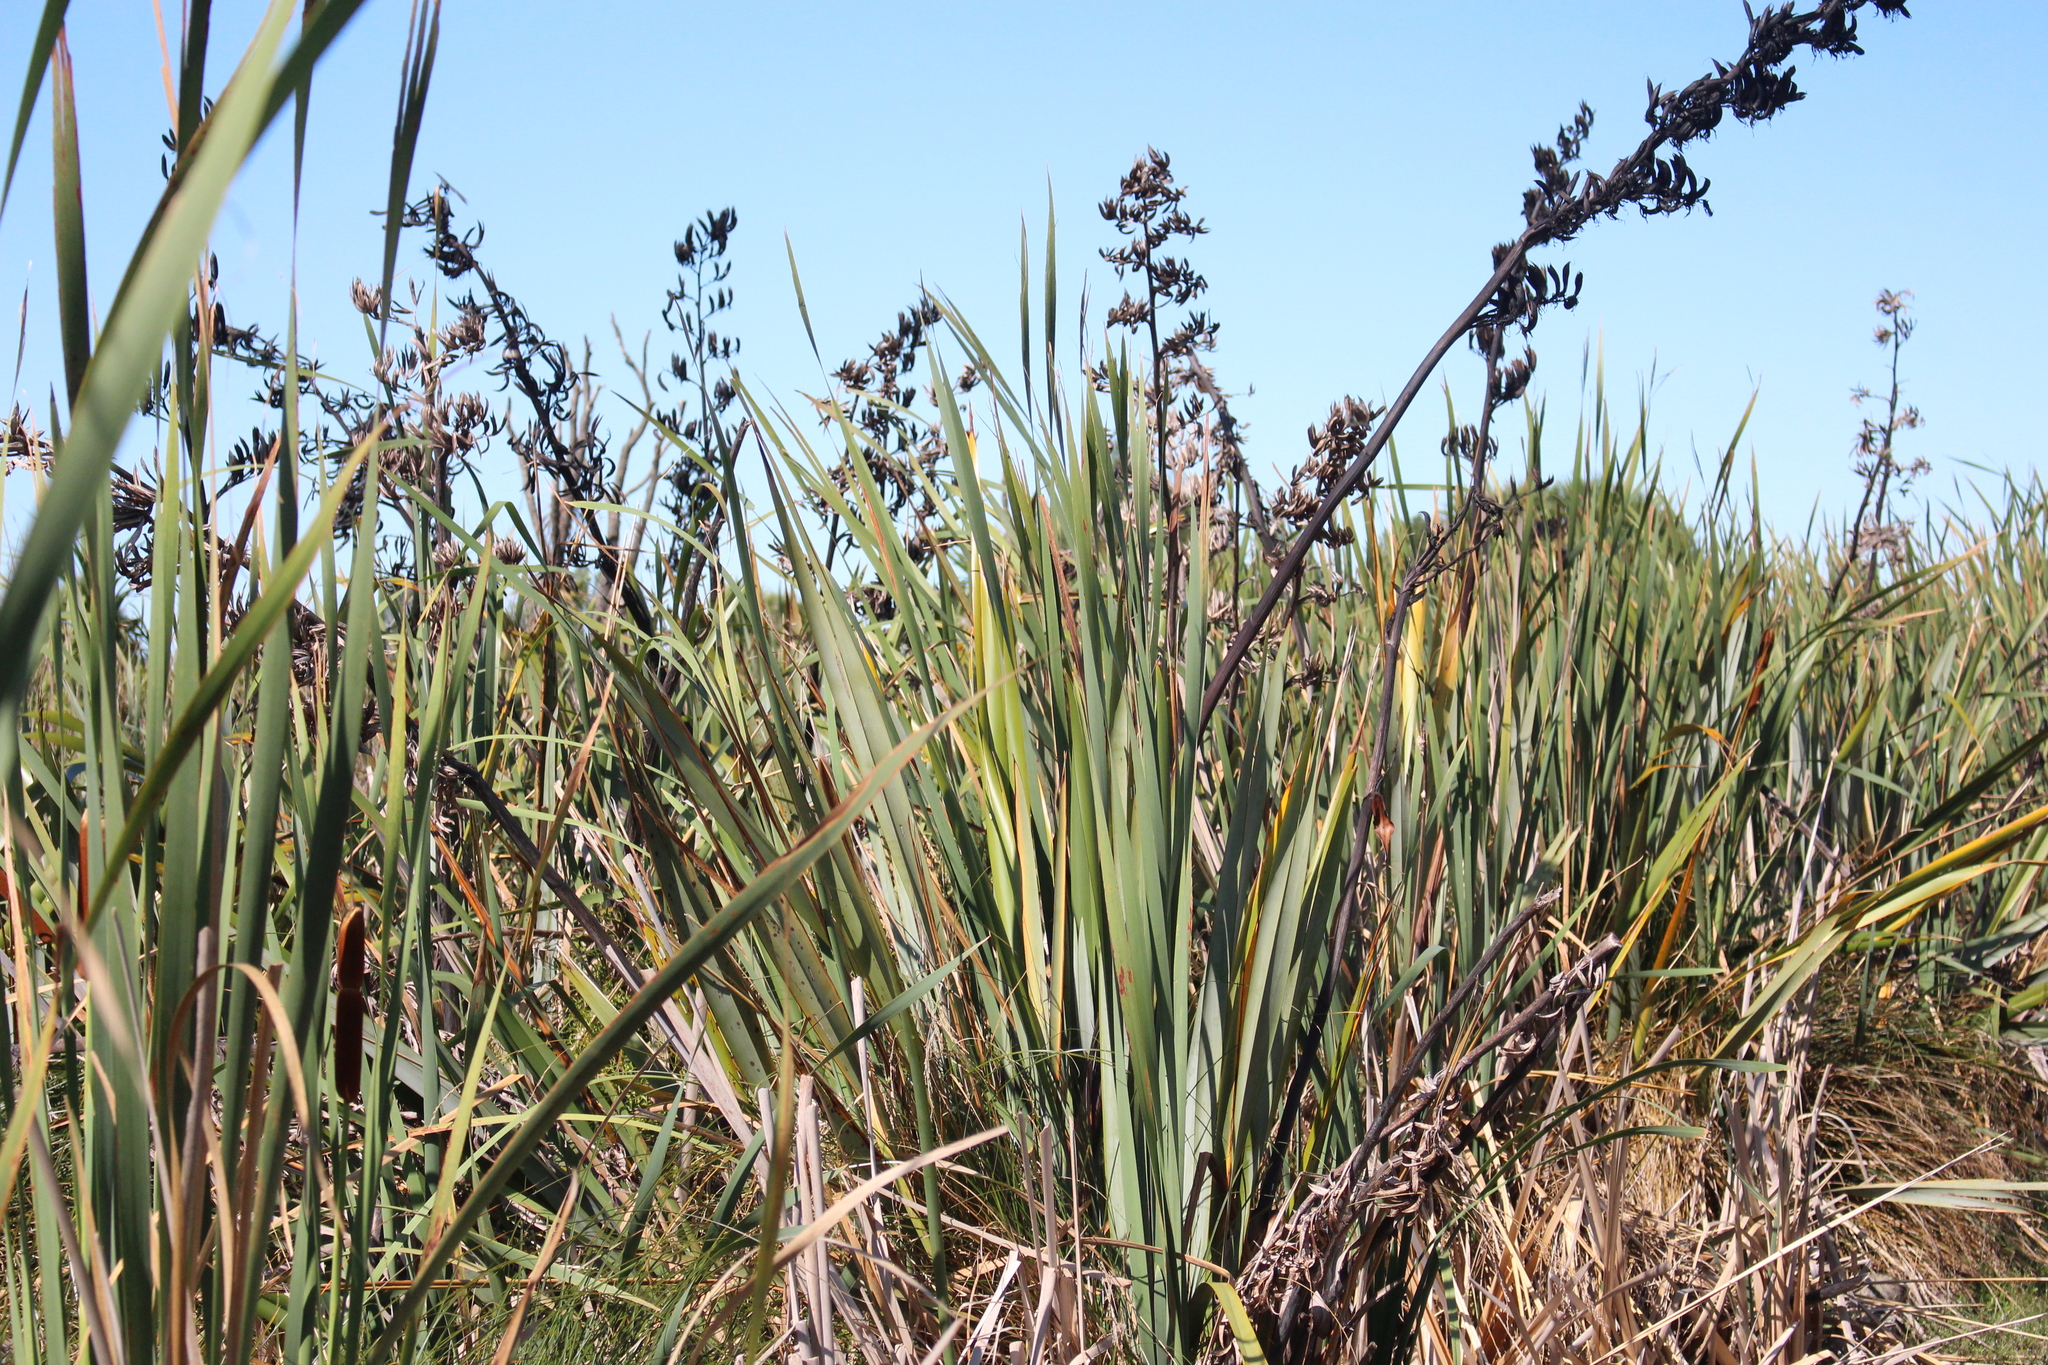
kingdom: Plantae
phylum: Tracheophyta
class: Liliopsida
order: Poales
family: Typhaceae
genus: Typha
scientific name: Typha orientalis
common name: Bullrush
